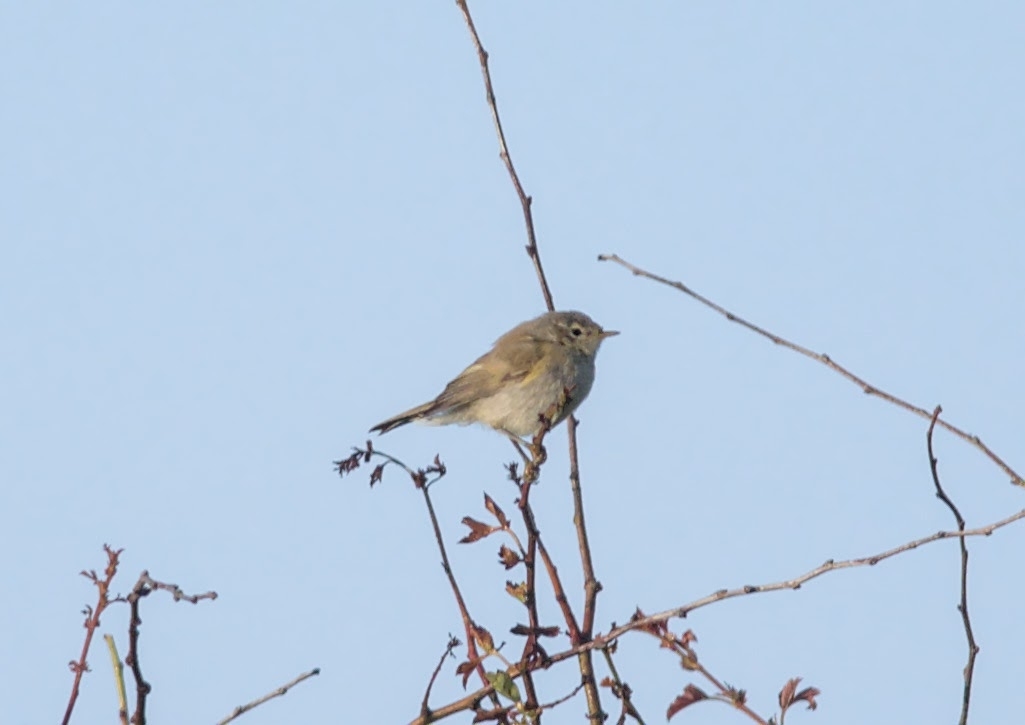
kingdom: Animalia
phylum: Chordata
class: Aves
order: Passeriformes
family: Phylloscopidae
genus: Phylloscopus
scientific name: Phylloscopus collybita
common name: Common chiffchaff
